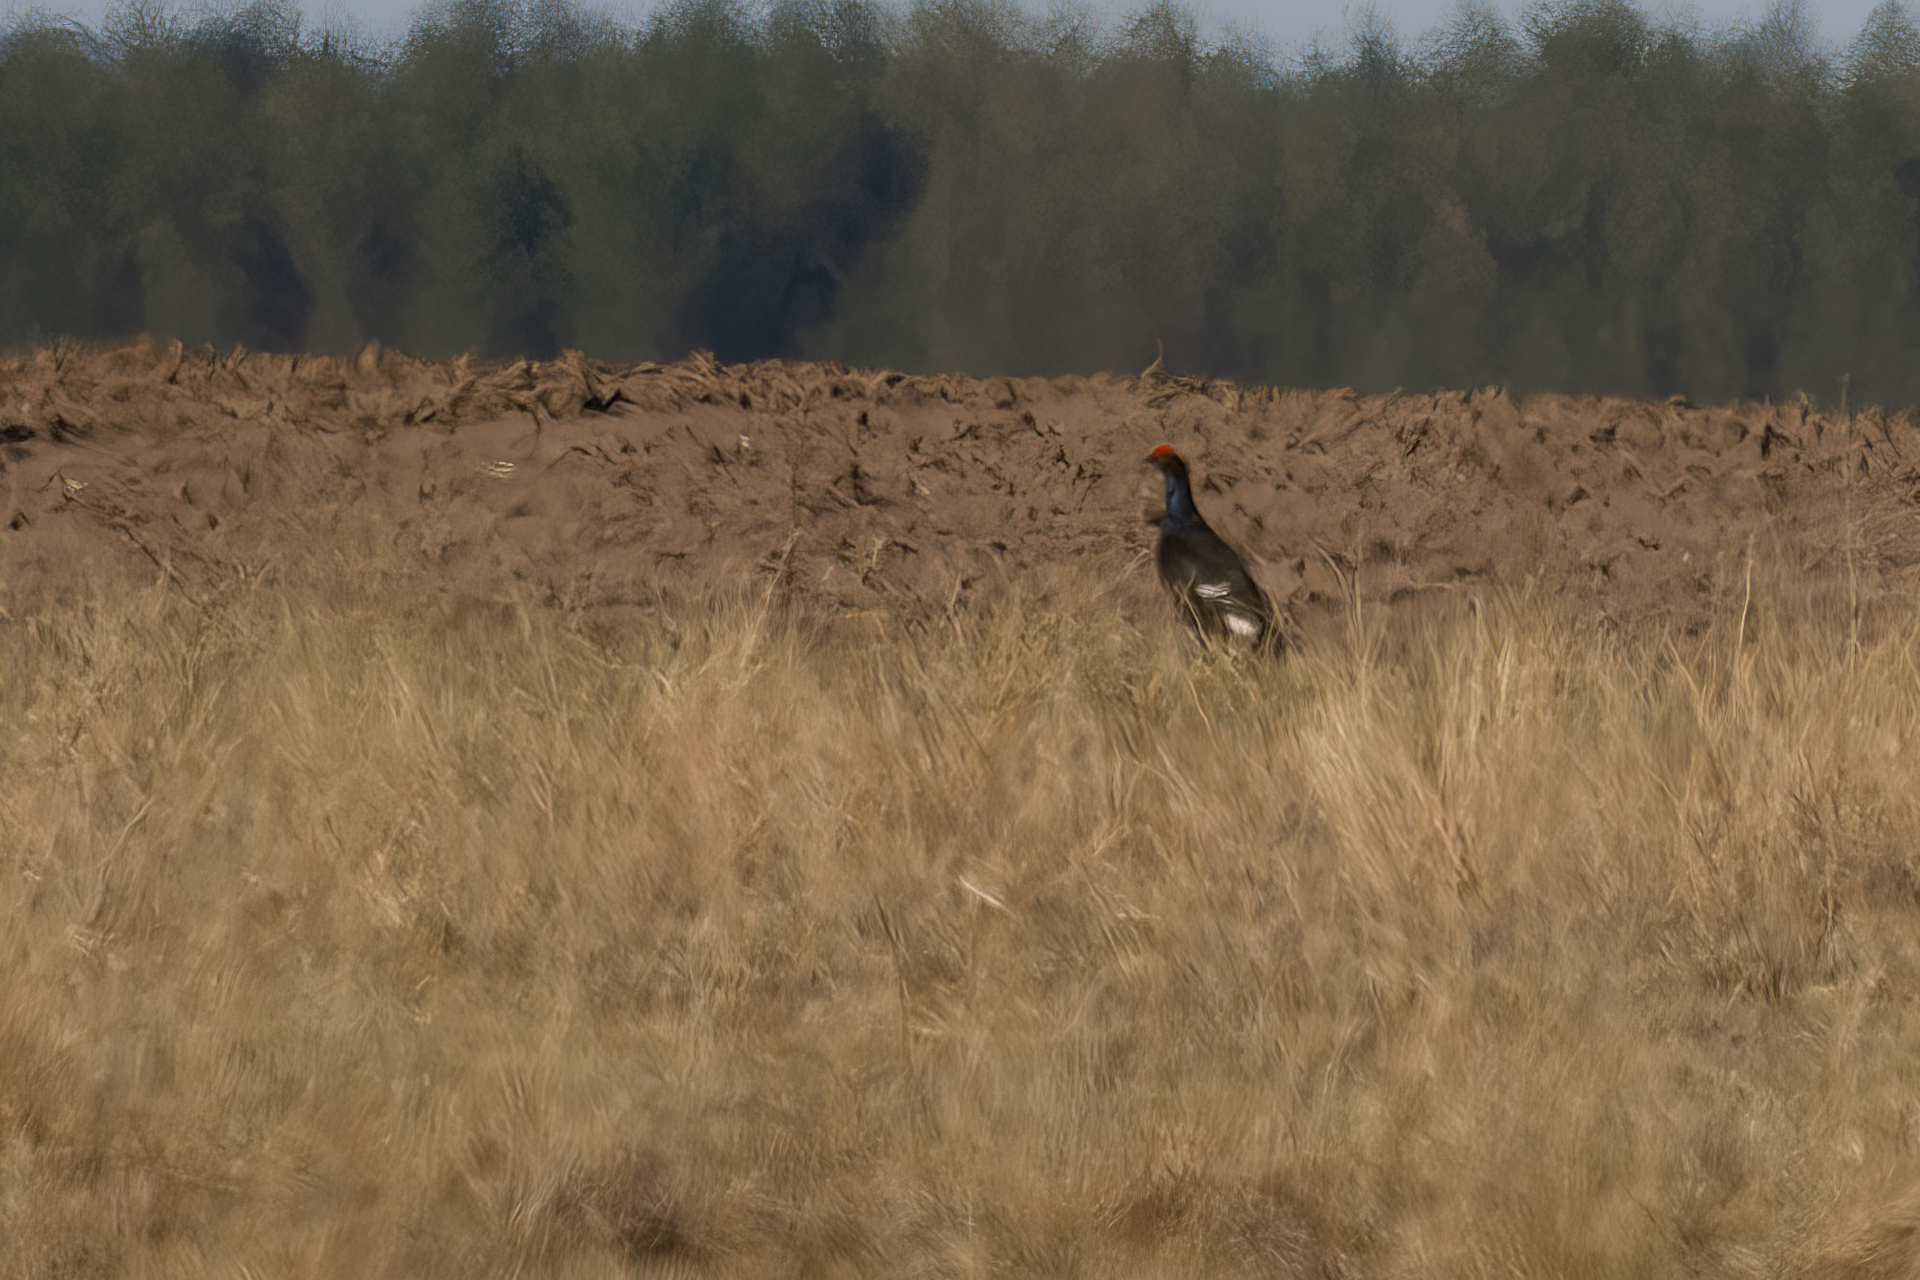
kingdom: Animalia
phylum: Chordata
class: Aves
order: Galliformes
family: Phasianidae
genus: Lyrurus
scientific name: Lyrurus tetrix
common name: Black grouse
